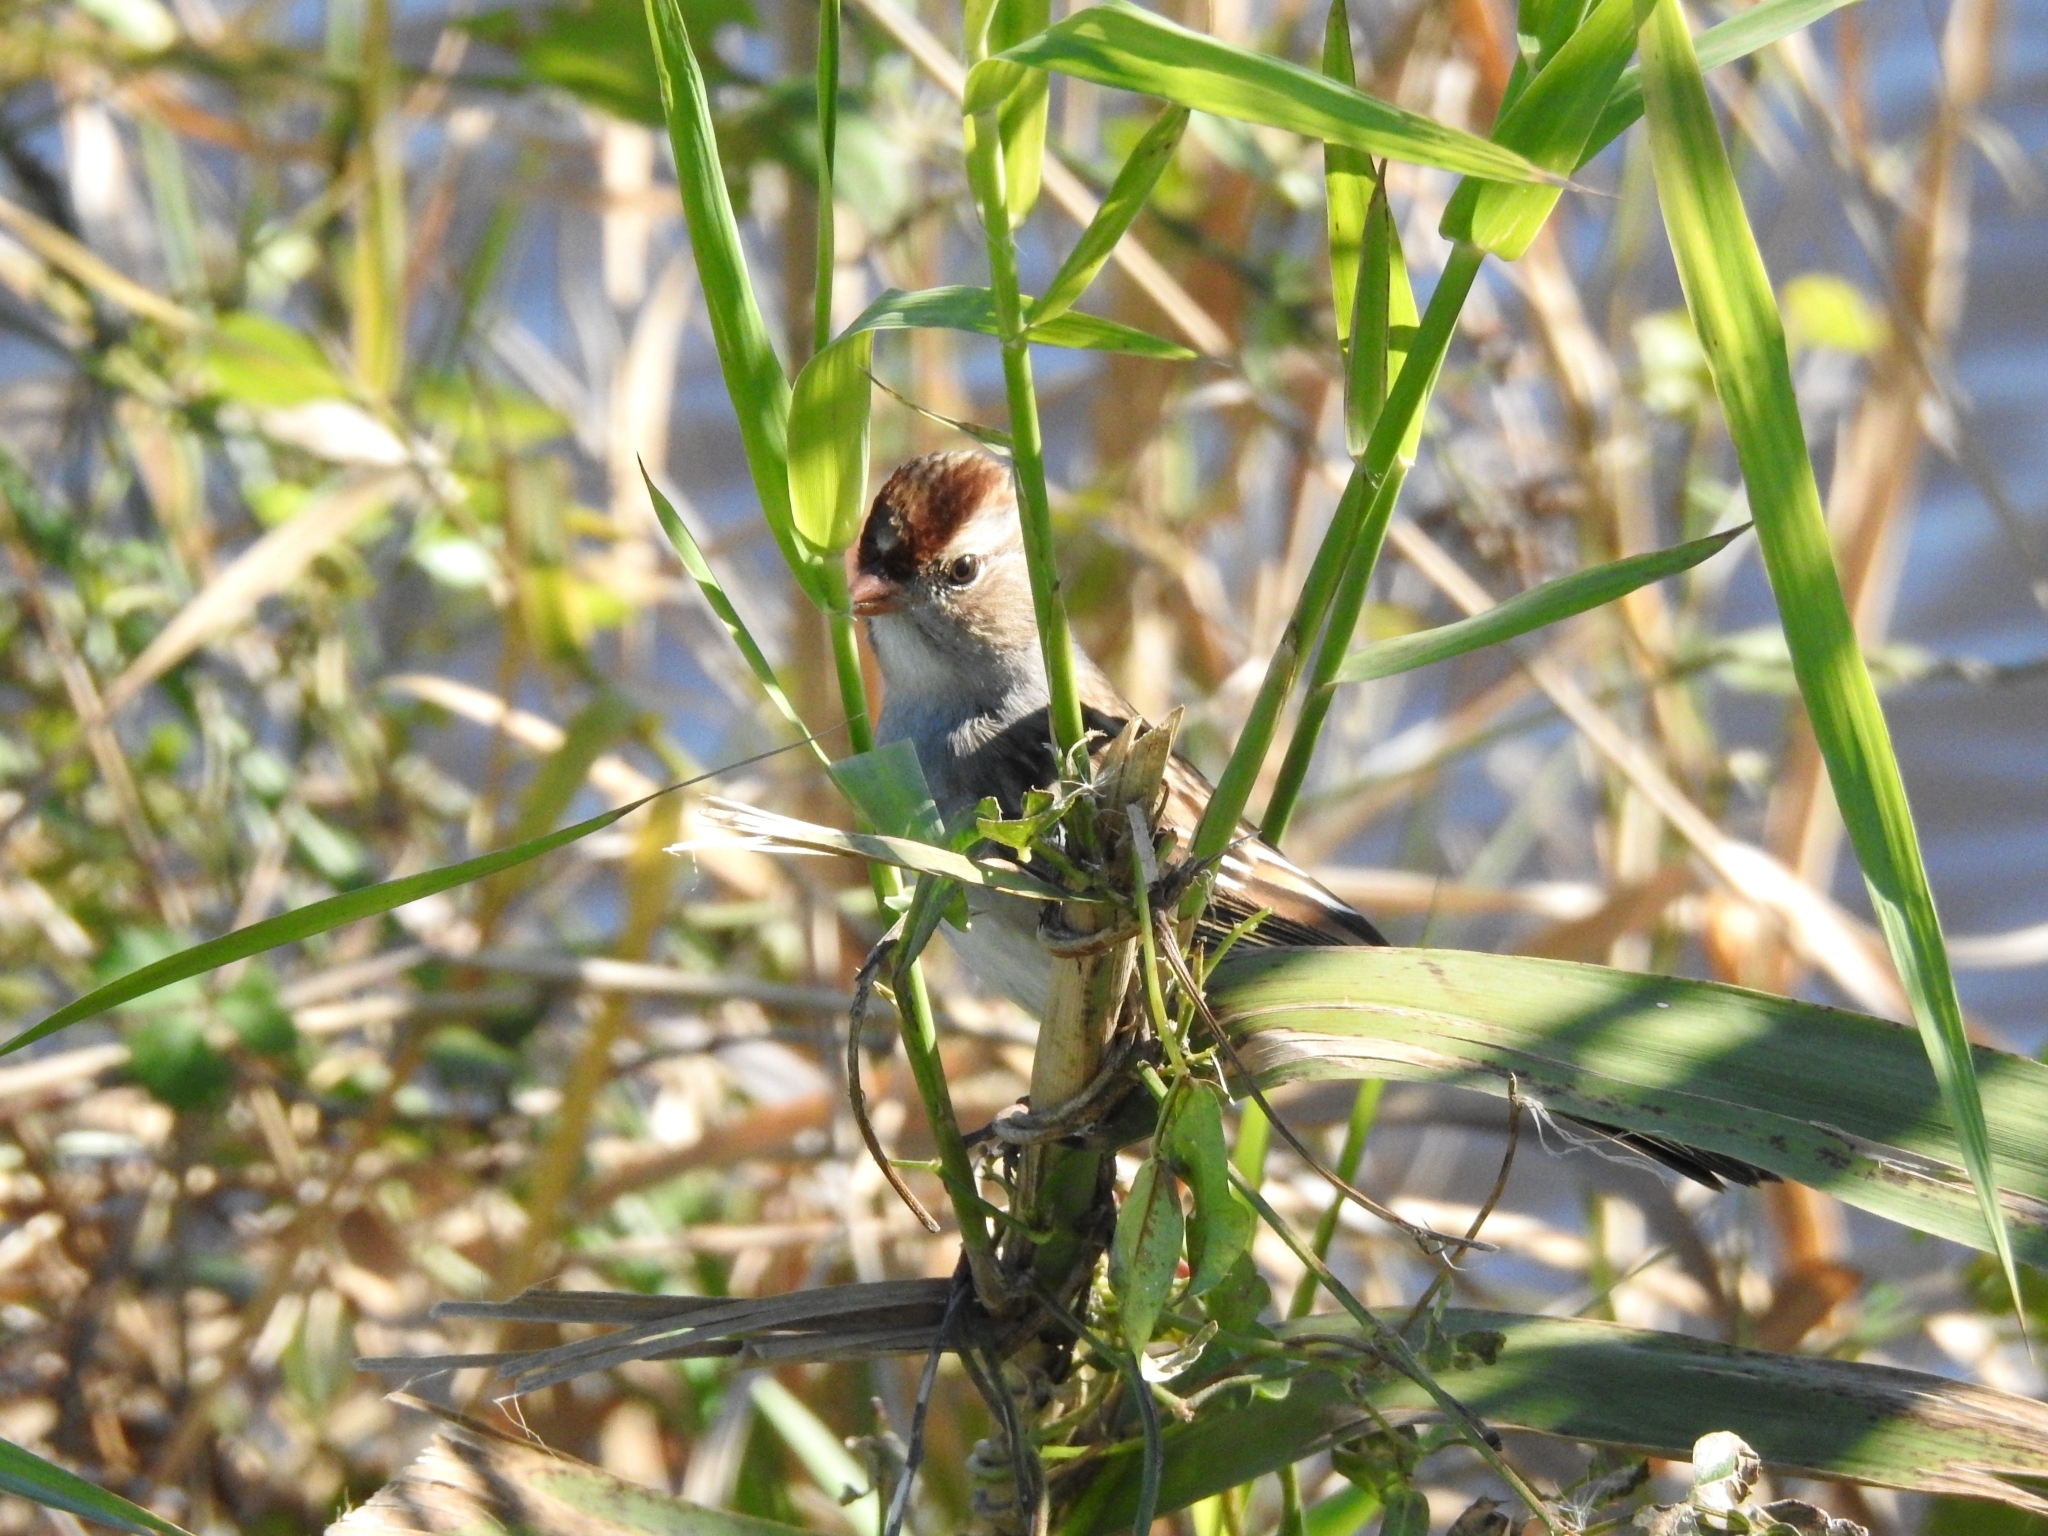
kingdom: Animalia
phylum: Chordata
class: Aves
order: Passeriformes
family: Passerellidae
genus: Zonotrichia
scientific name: Zonotrichia leucophrys
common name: White-crowned sparrow
